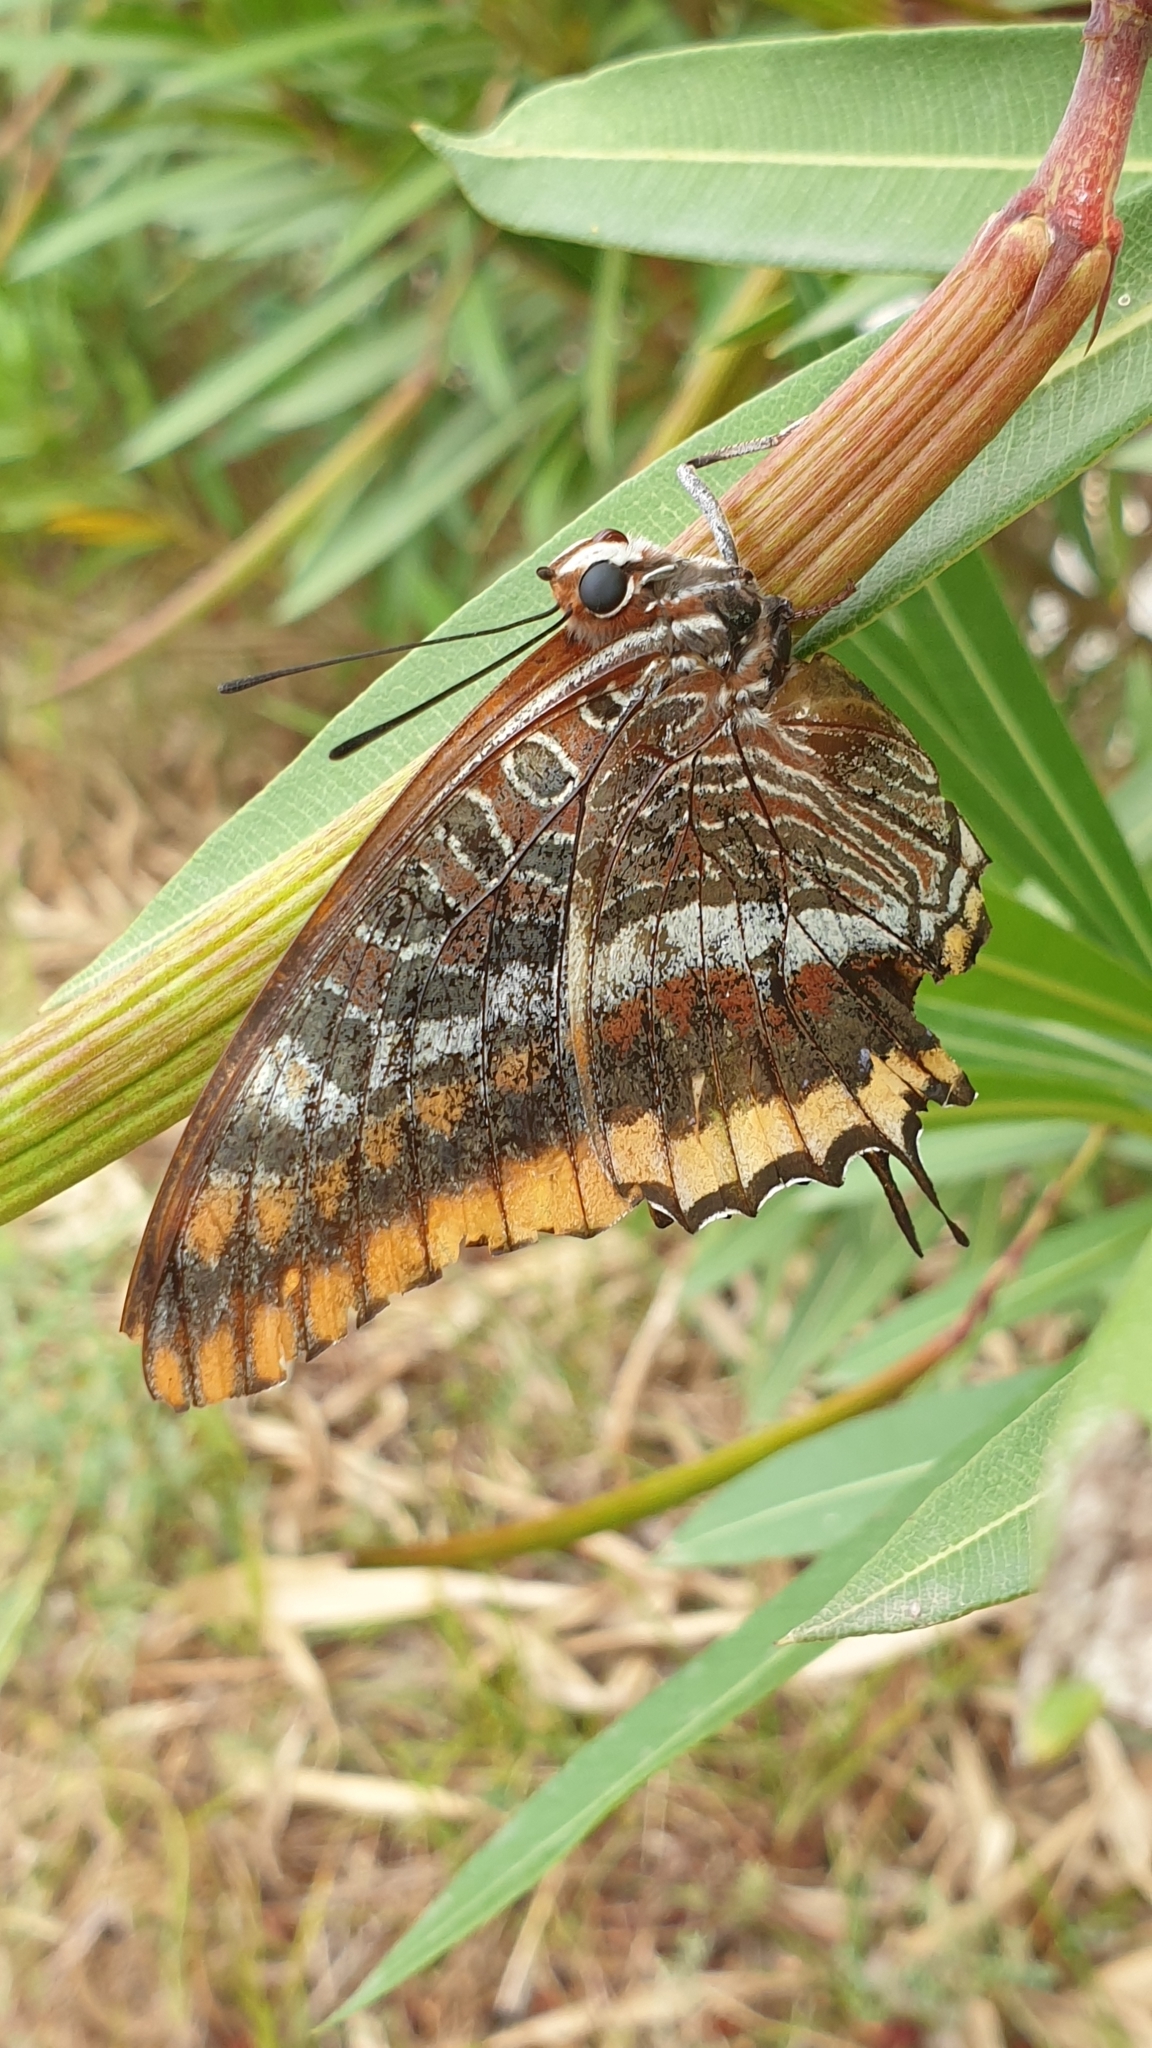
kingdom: Animalia
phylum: Arthropoda
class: Insecta
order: Lepidoptera
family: Nymphalidae
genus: Charaxes
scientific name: Charaxes jasius
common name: Two tailed pasha
